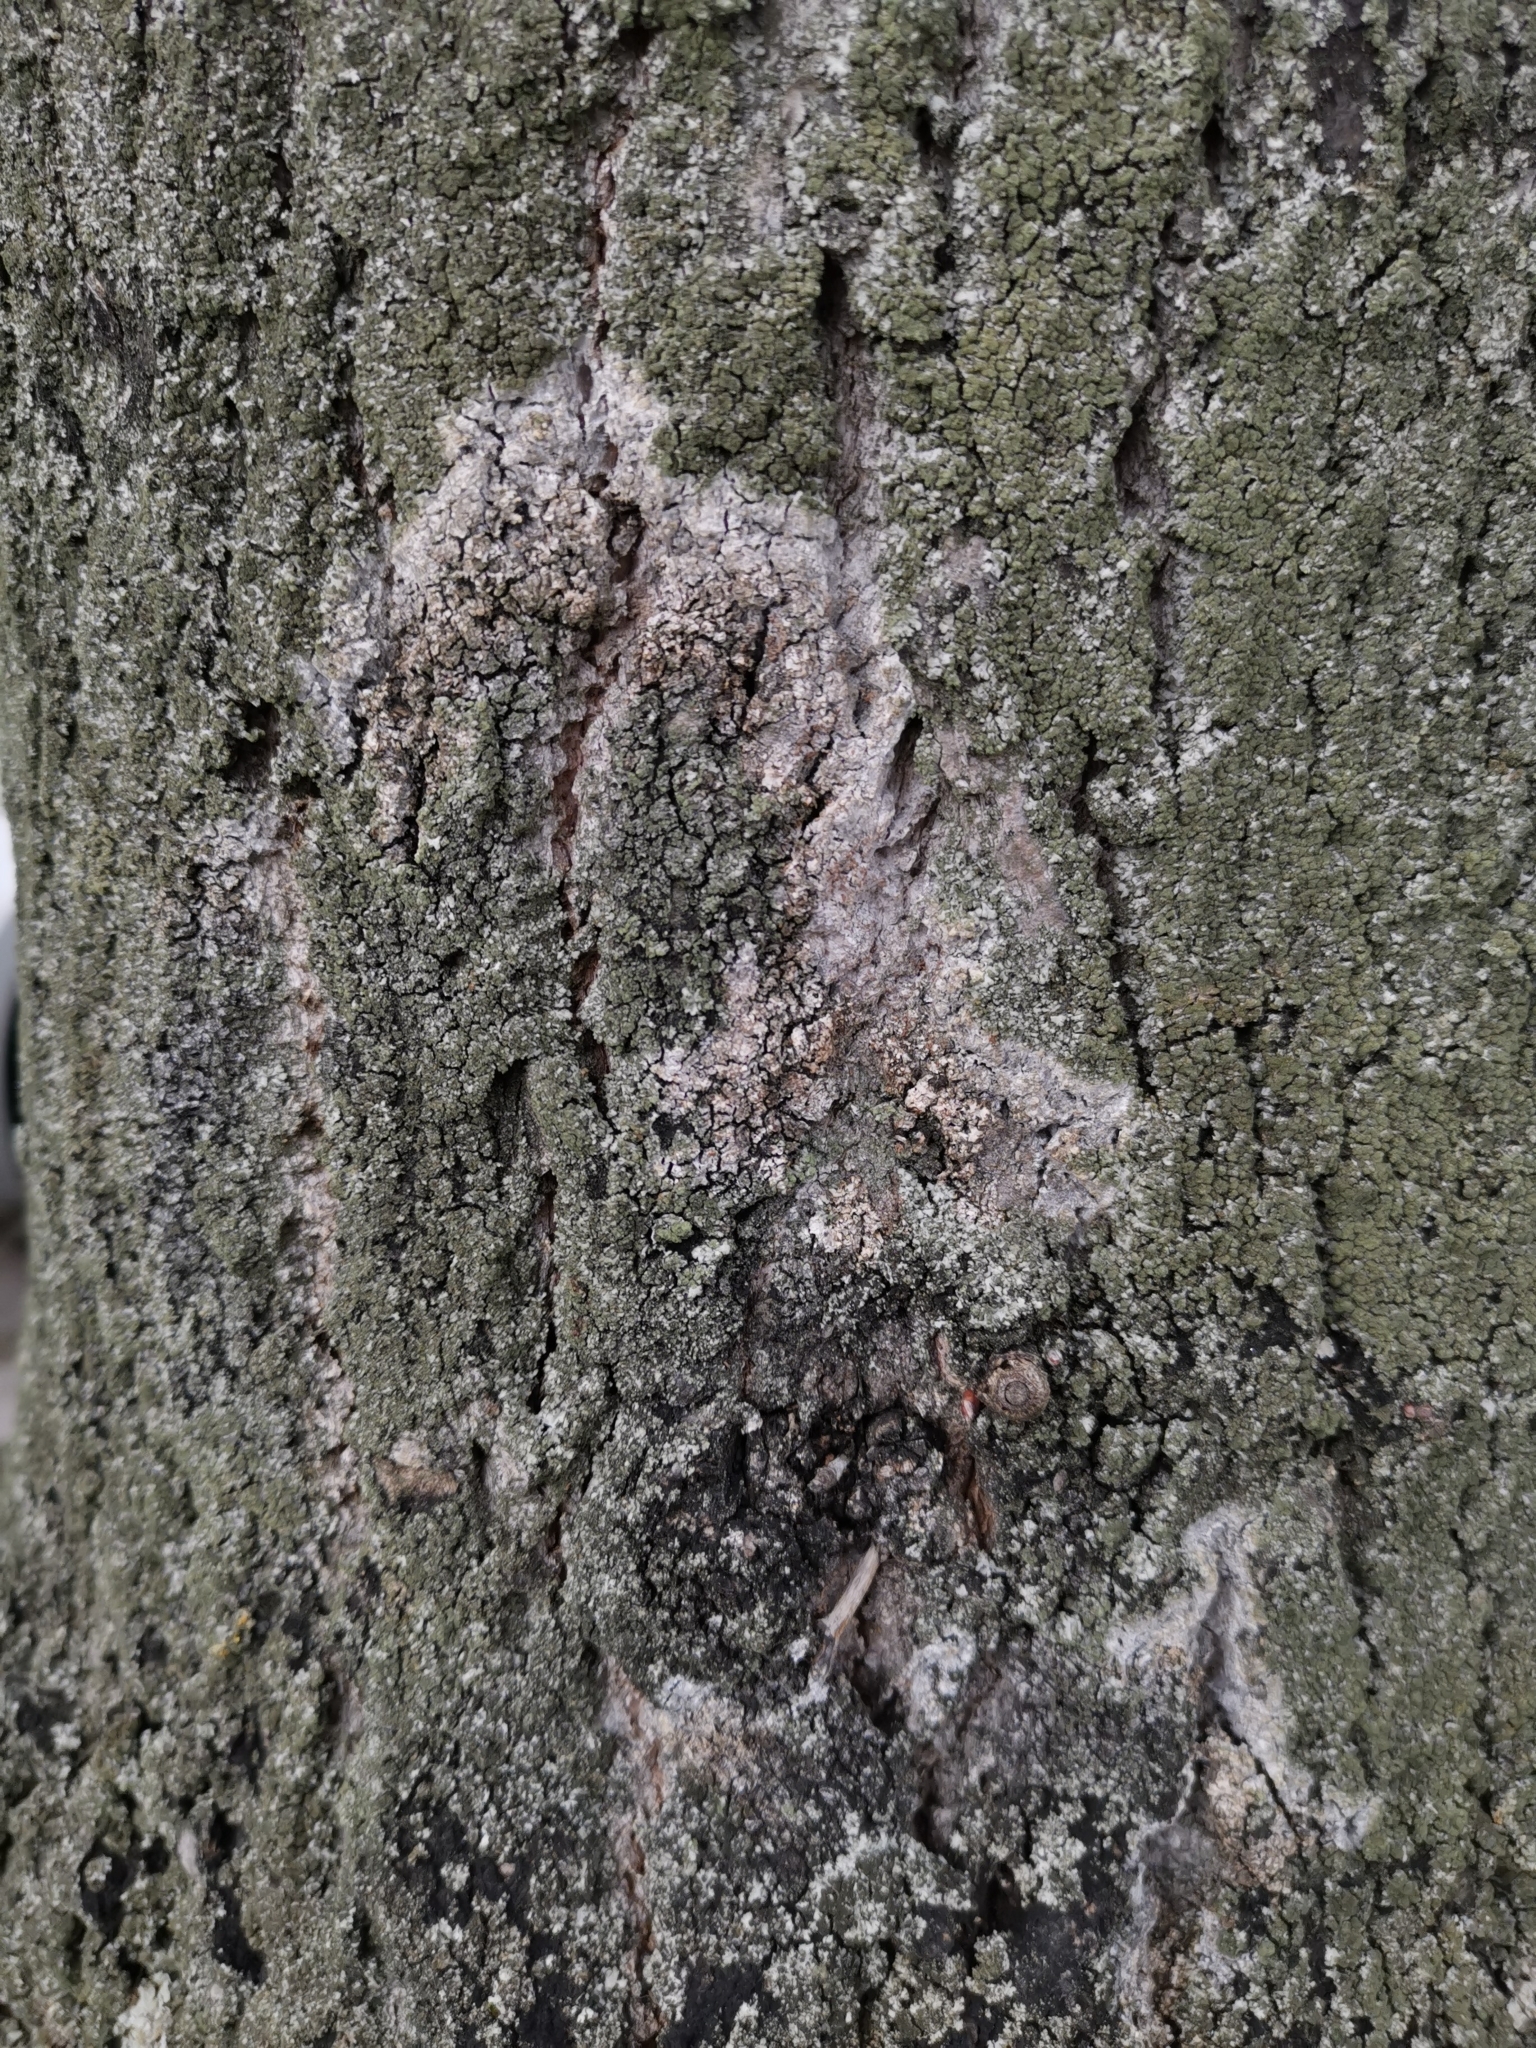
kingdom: Fungi
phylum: Basidiomycota
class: Agaricomycetes
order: Atheliales
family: Atheliaceae
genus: Athelia
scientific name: Athelia arachnoidea
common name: Candelabra duster
